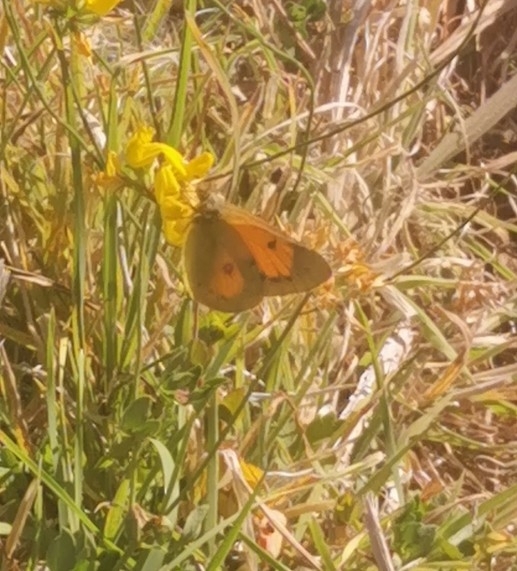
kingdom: Animalia
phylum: Arthropoda
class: Insecta
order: Lepidoptera
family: Pieridae
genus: Colias
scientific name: Colias vauthierii
